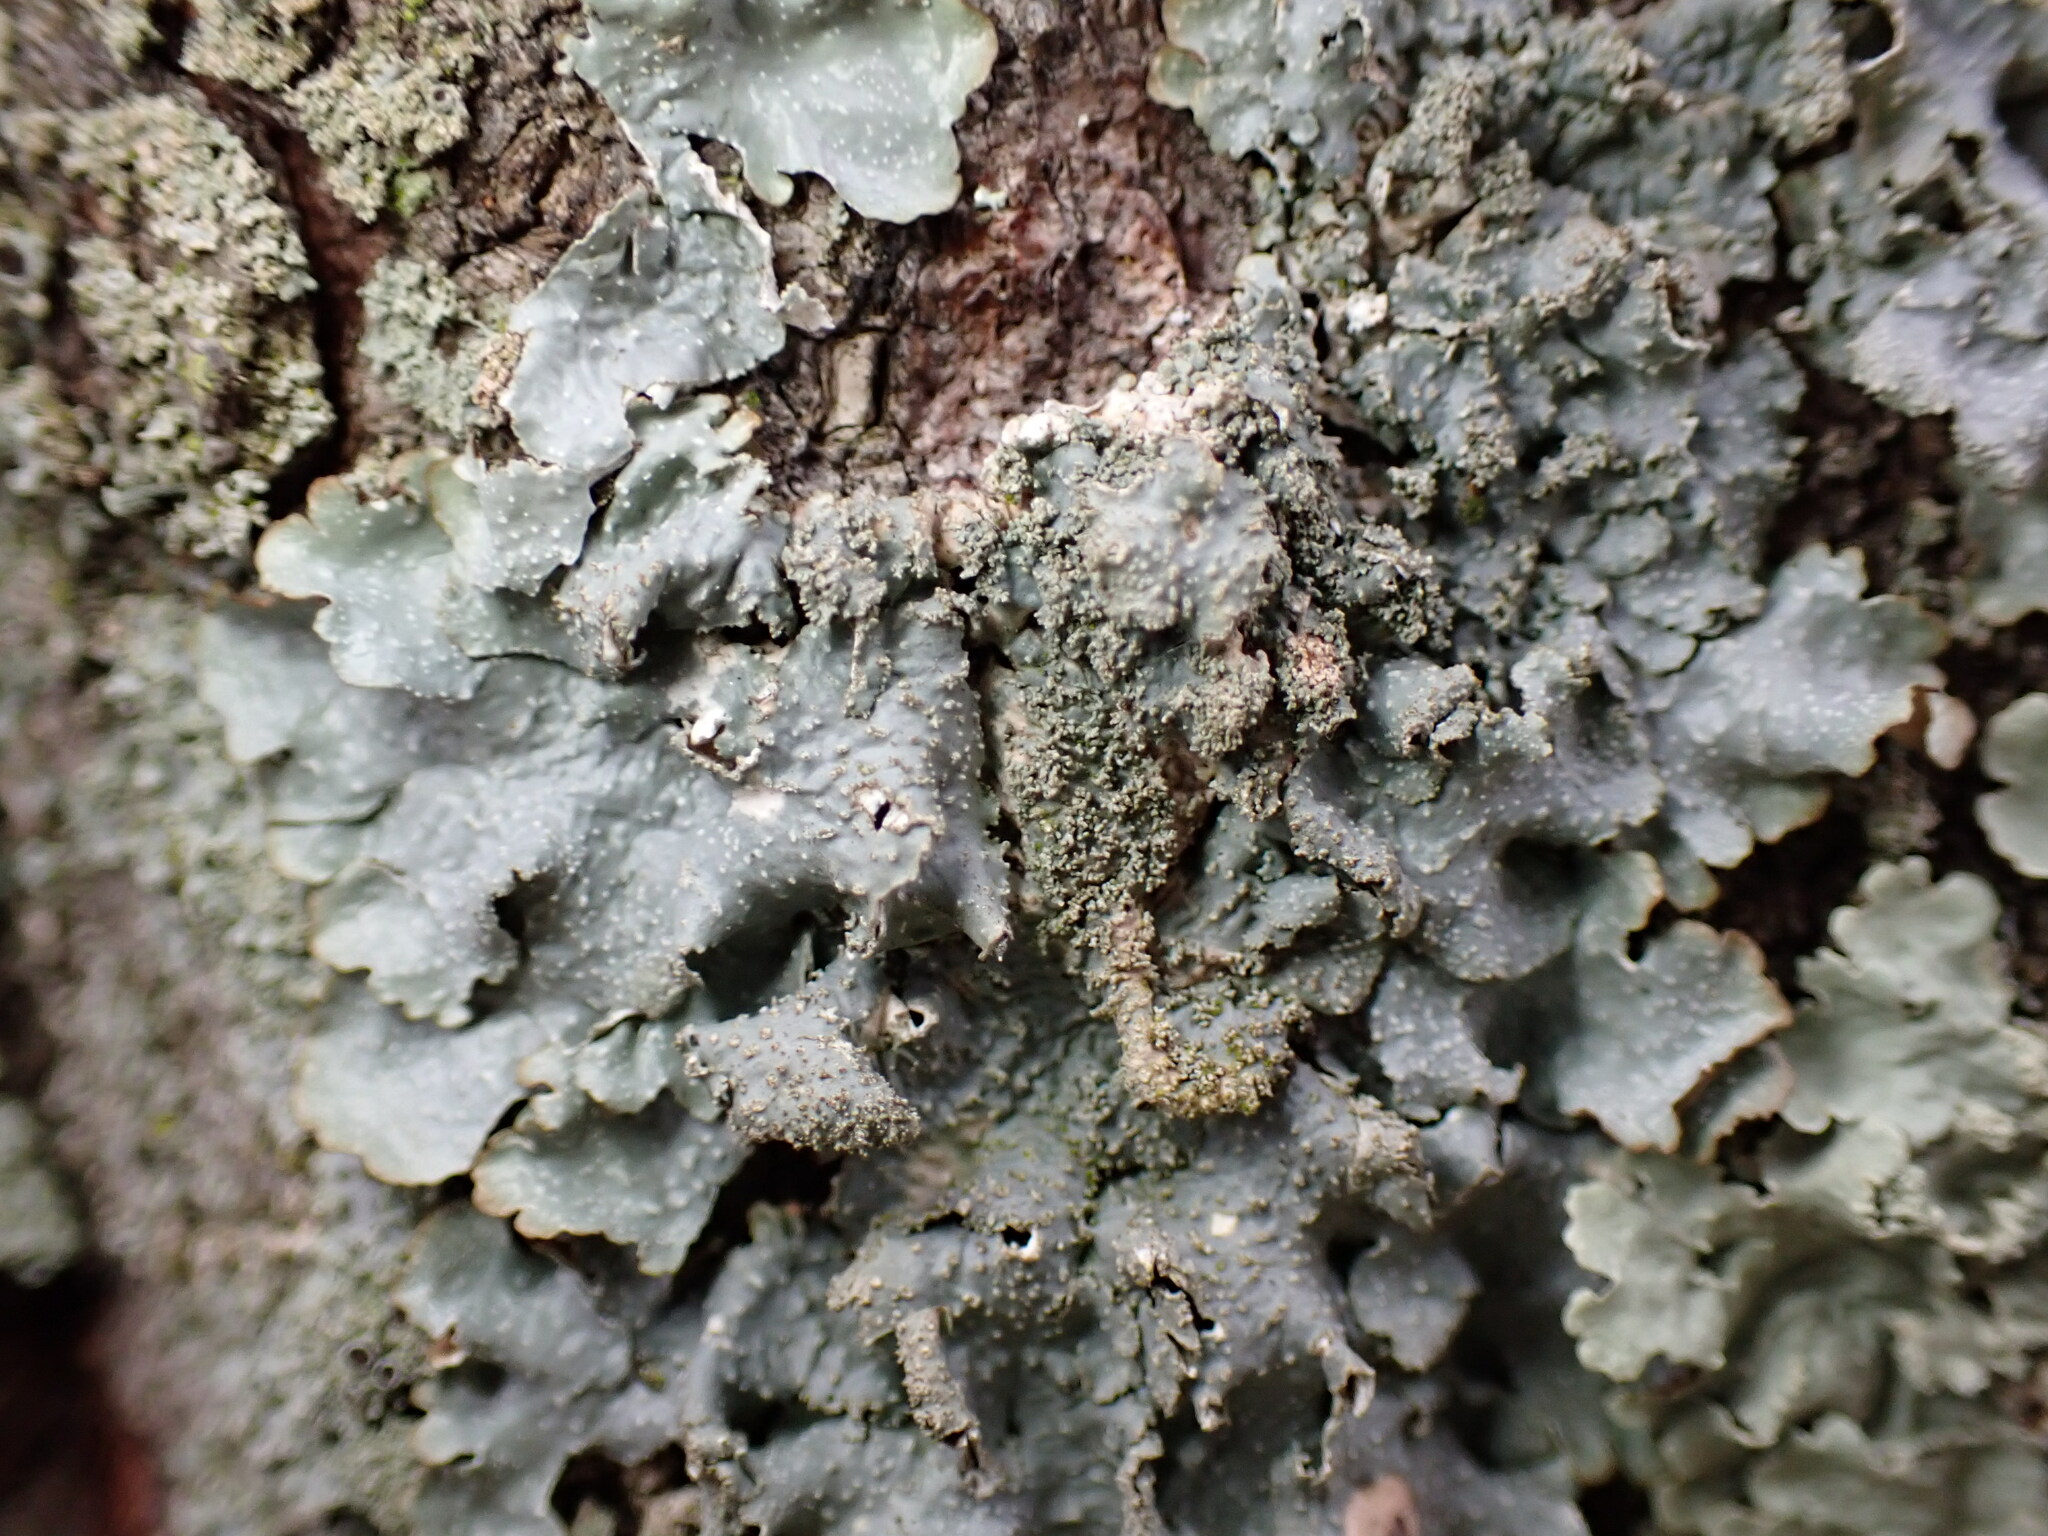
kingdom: Fungi
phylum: Ascomycota
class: Lecanoromycetes
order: Lecanorales
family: Parmeliaceae
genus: Punctelia
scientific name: Punctelia rudecta
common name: Rough speckled shield lichen
